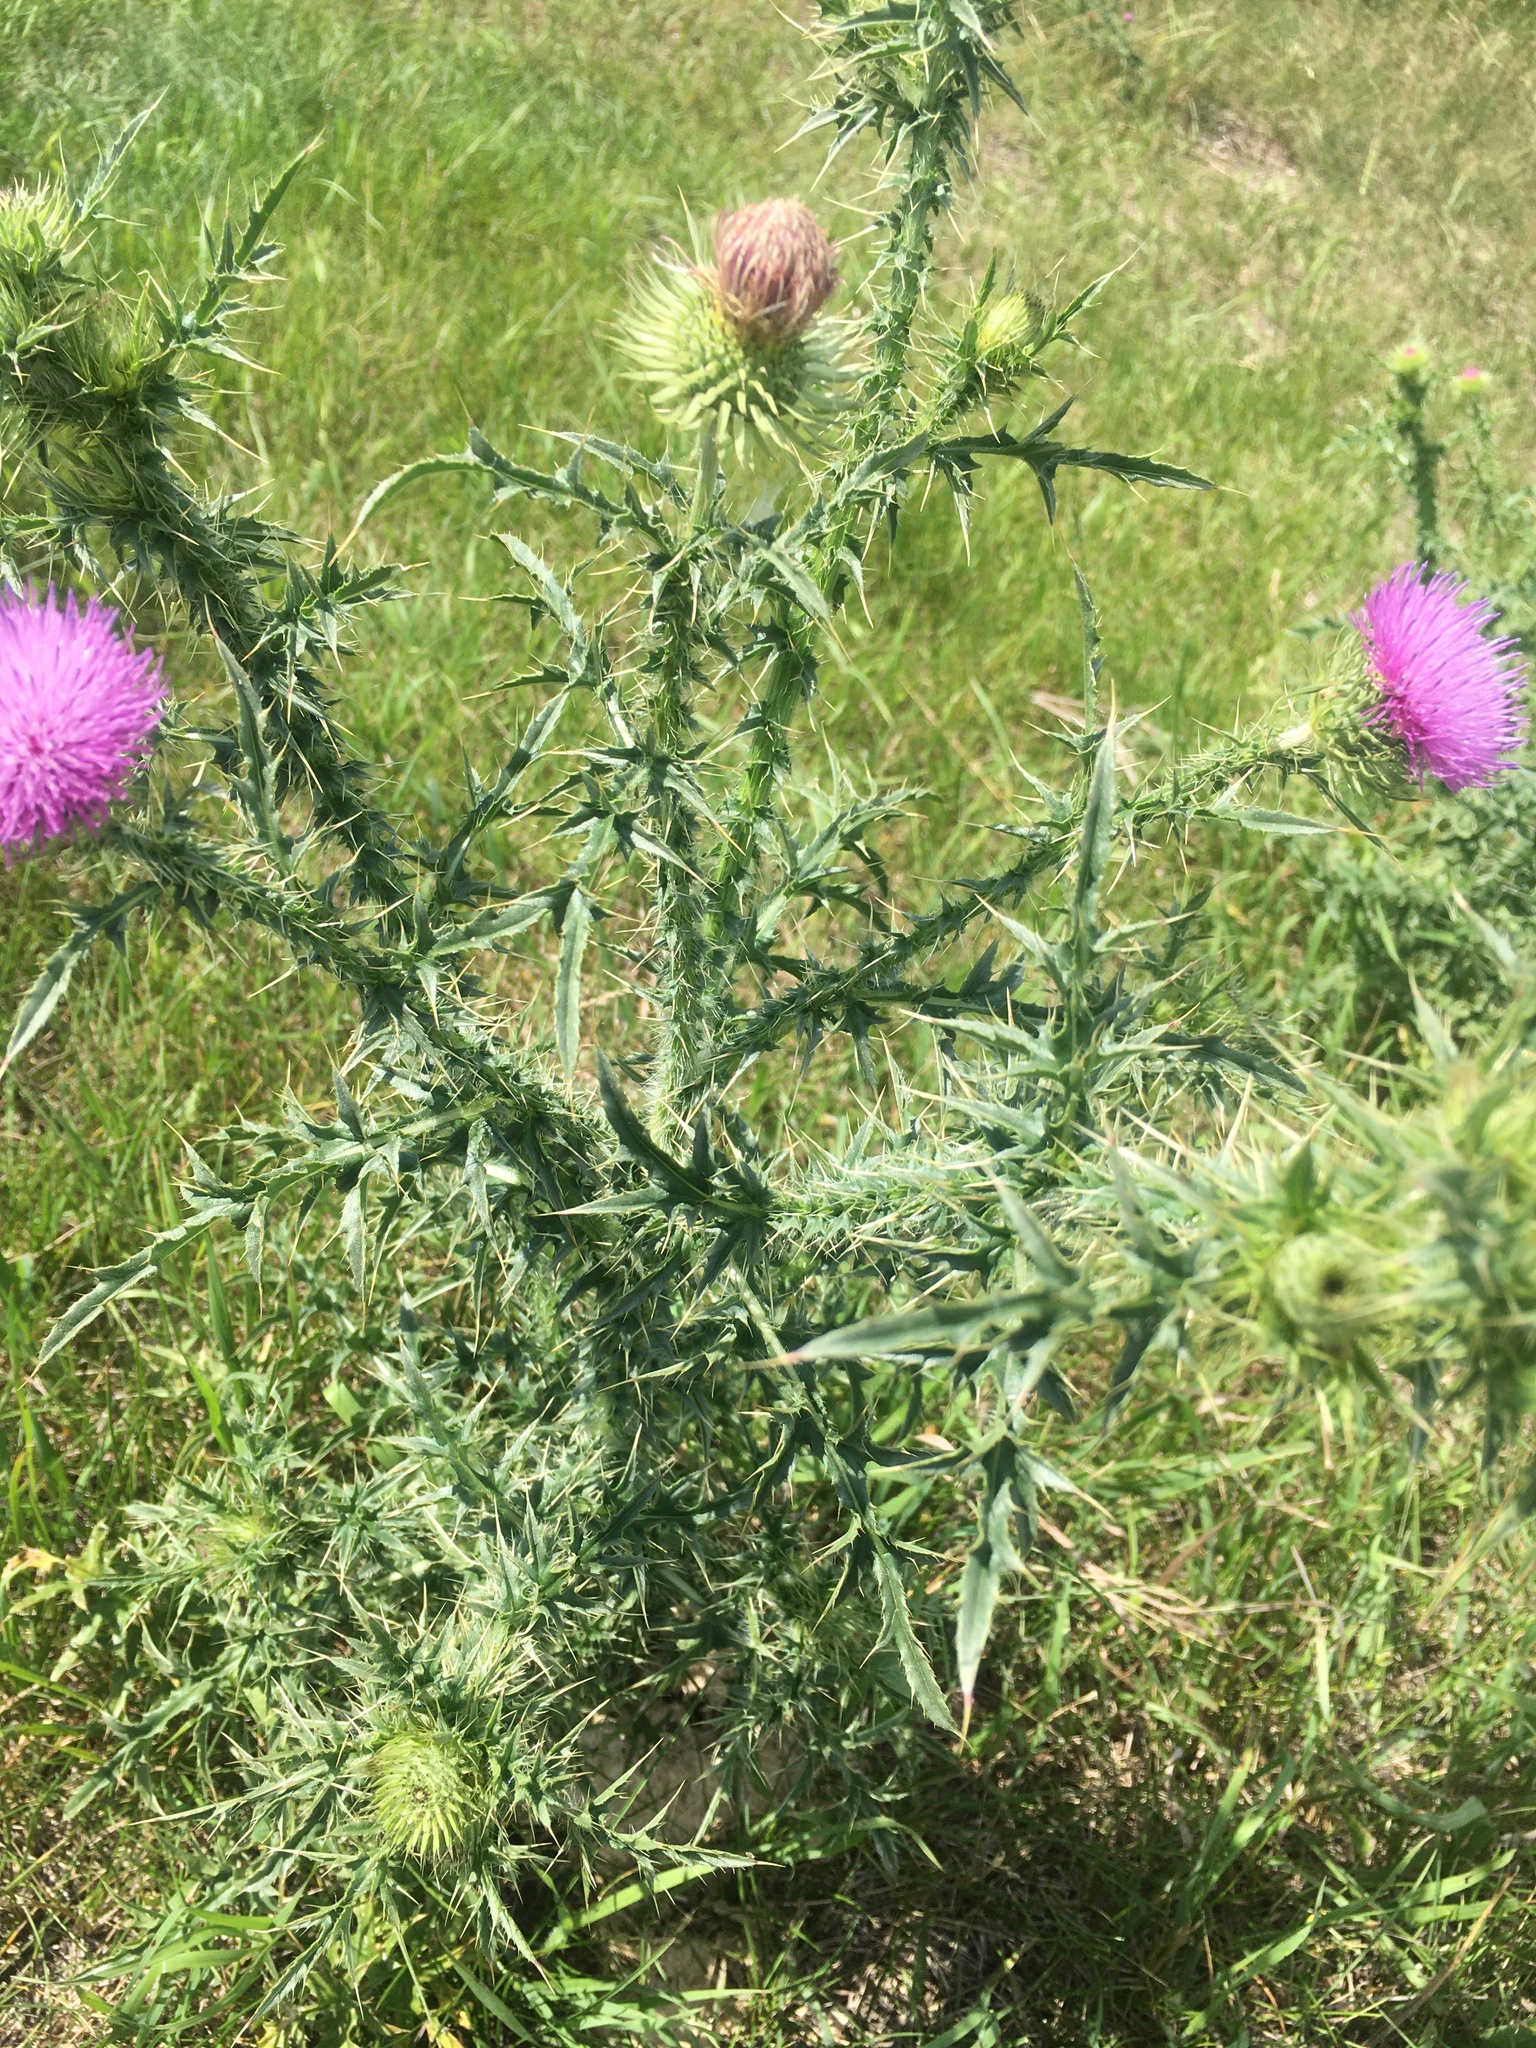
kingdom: Plantae
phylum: Tracheophyta
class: Magnoliopsida
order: Asterales
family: Asteraceae
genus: Carduus
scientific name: Carduus acanthoides
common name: Plumeless thistle
